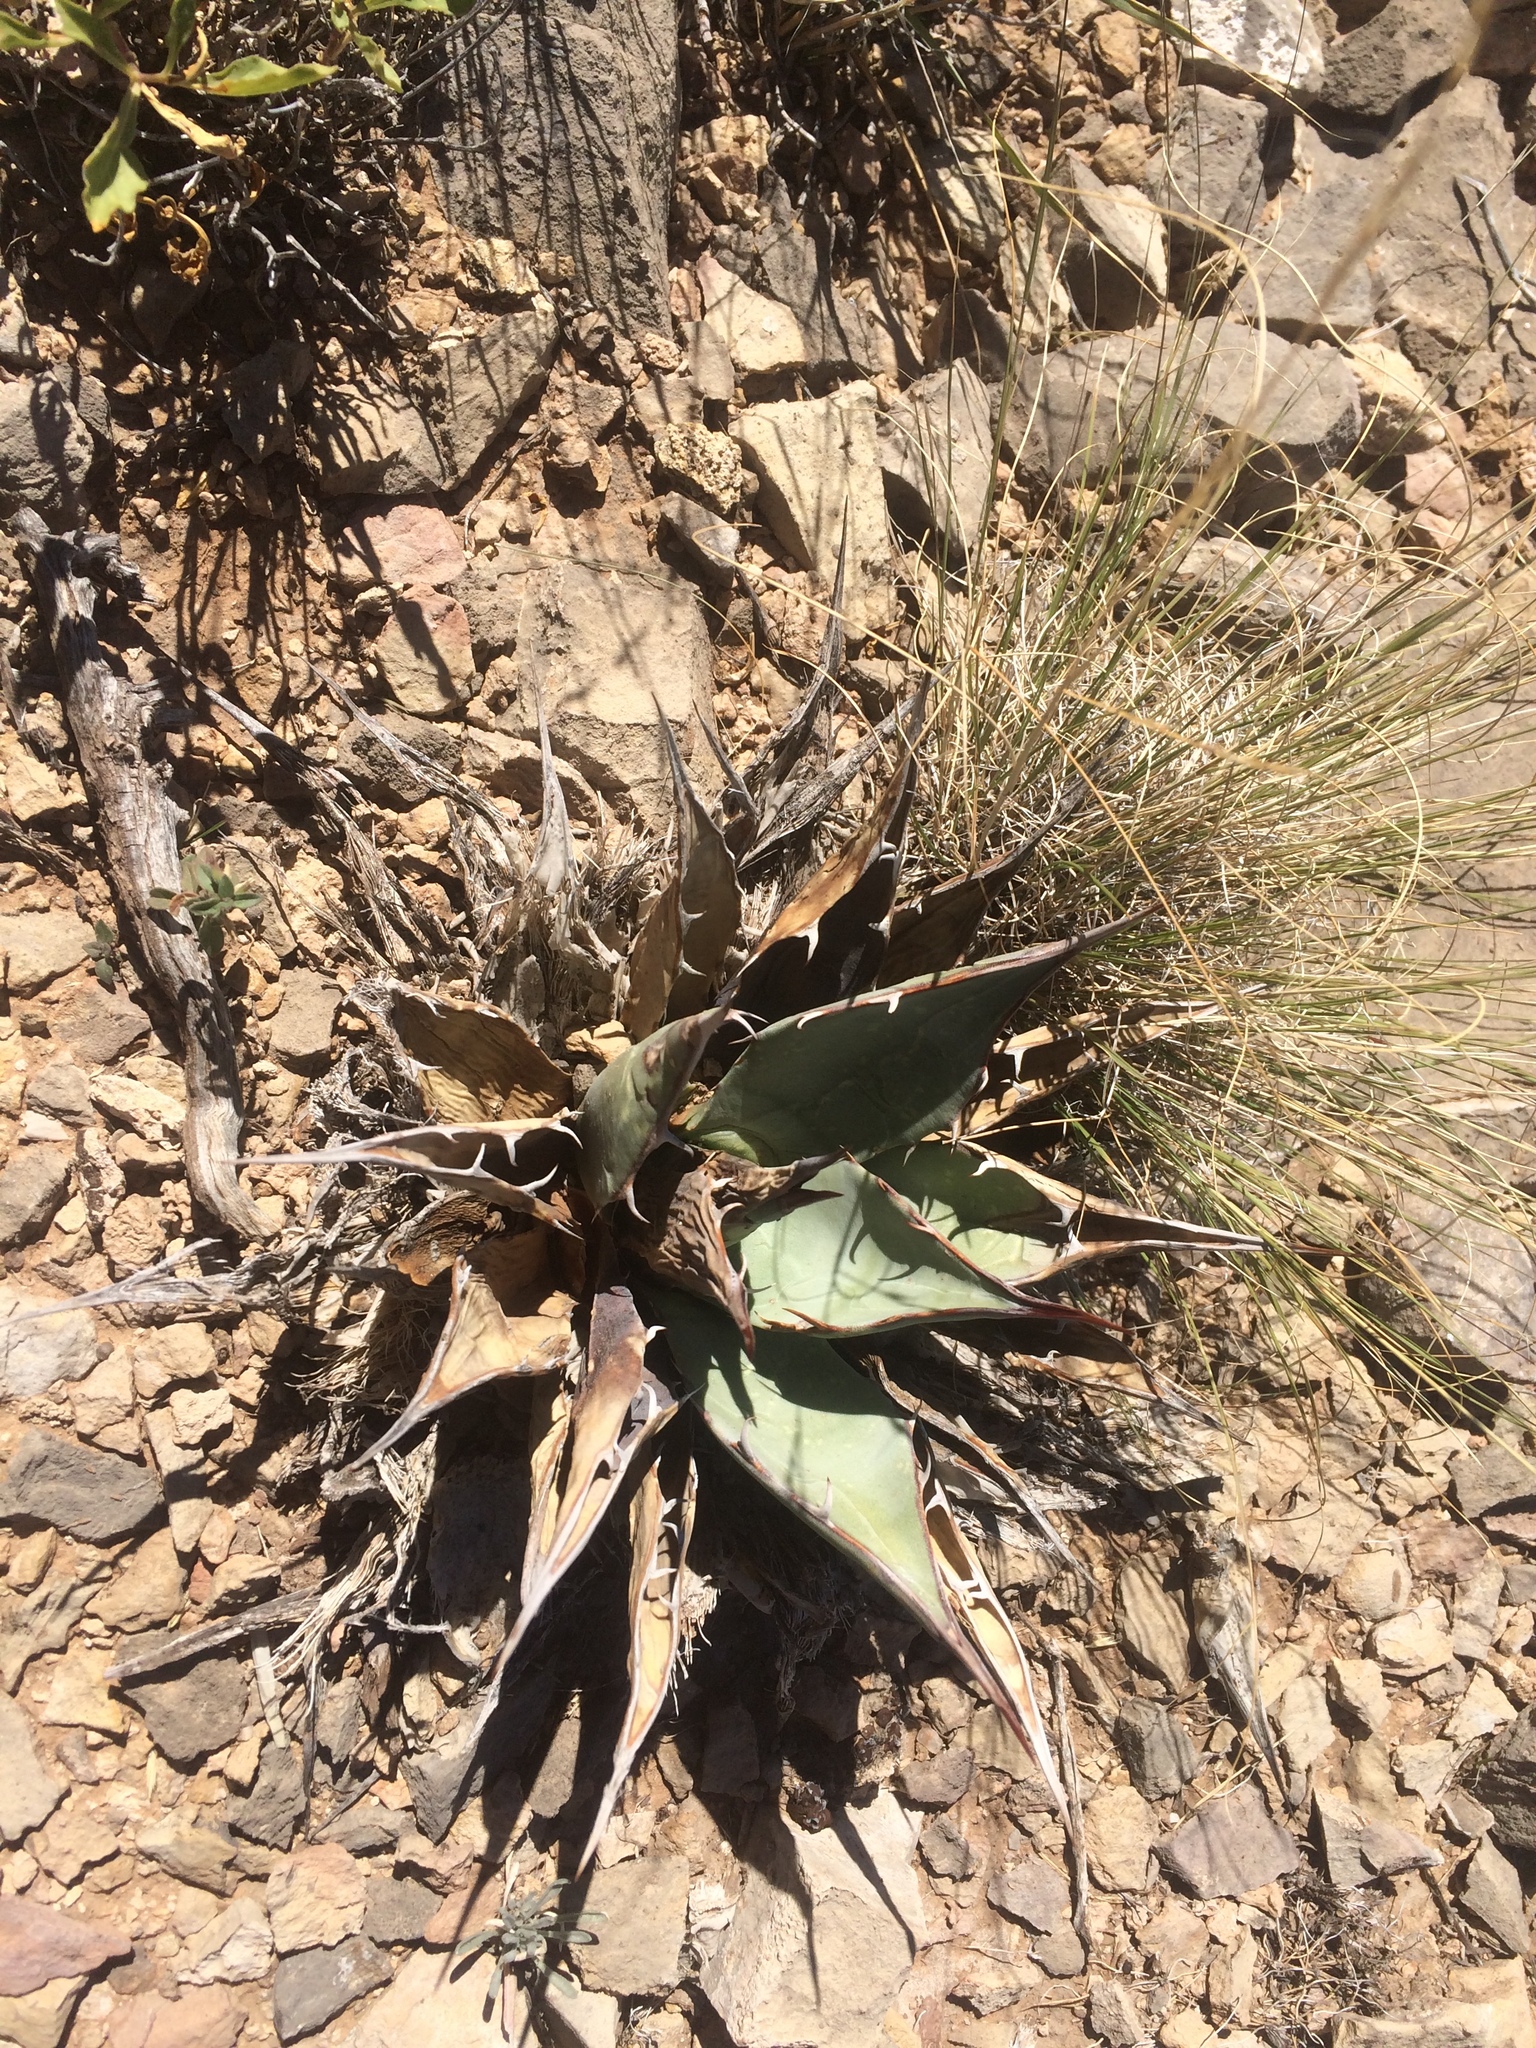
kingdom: Plantae
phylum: Tracheophyta
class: Liliopsida
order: Asparagales
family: Asparagaceae
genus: Agave
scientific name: Agave parryi
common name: Parry's agave
